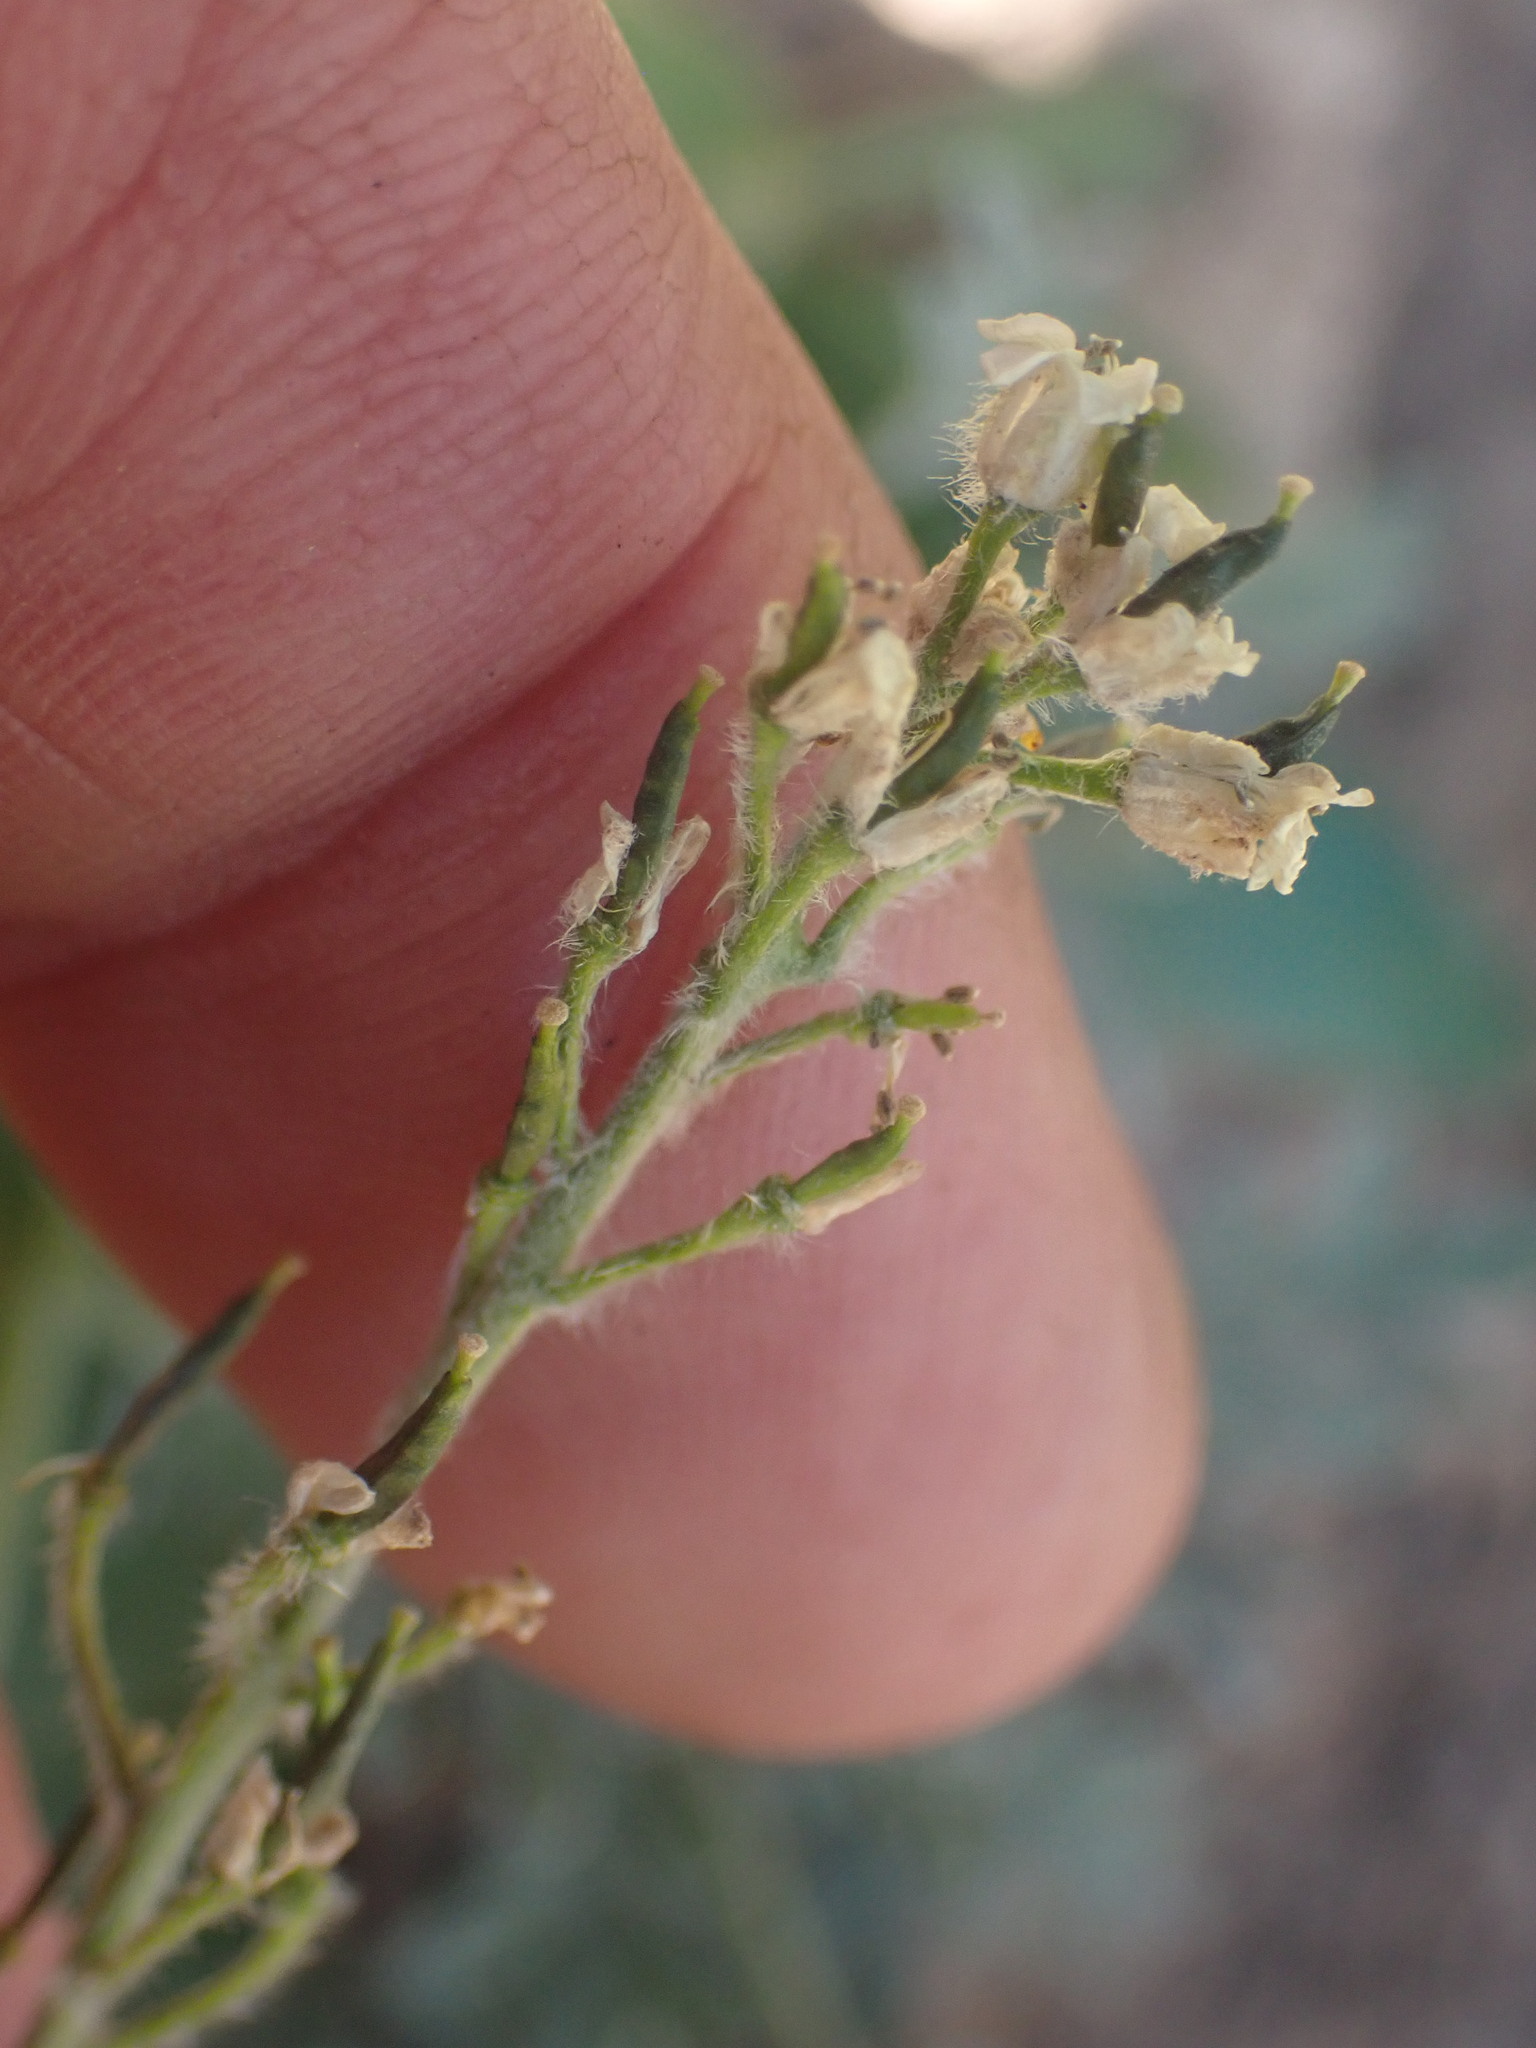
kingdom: Plantae
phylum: Tracheophyta
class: Magnoliopsida
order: Brassicales
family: Brassicaceae
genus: Smelowskia
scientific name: Smelowskia americana
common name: American false candytuft
